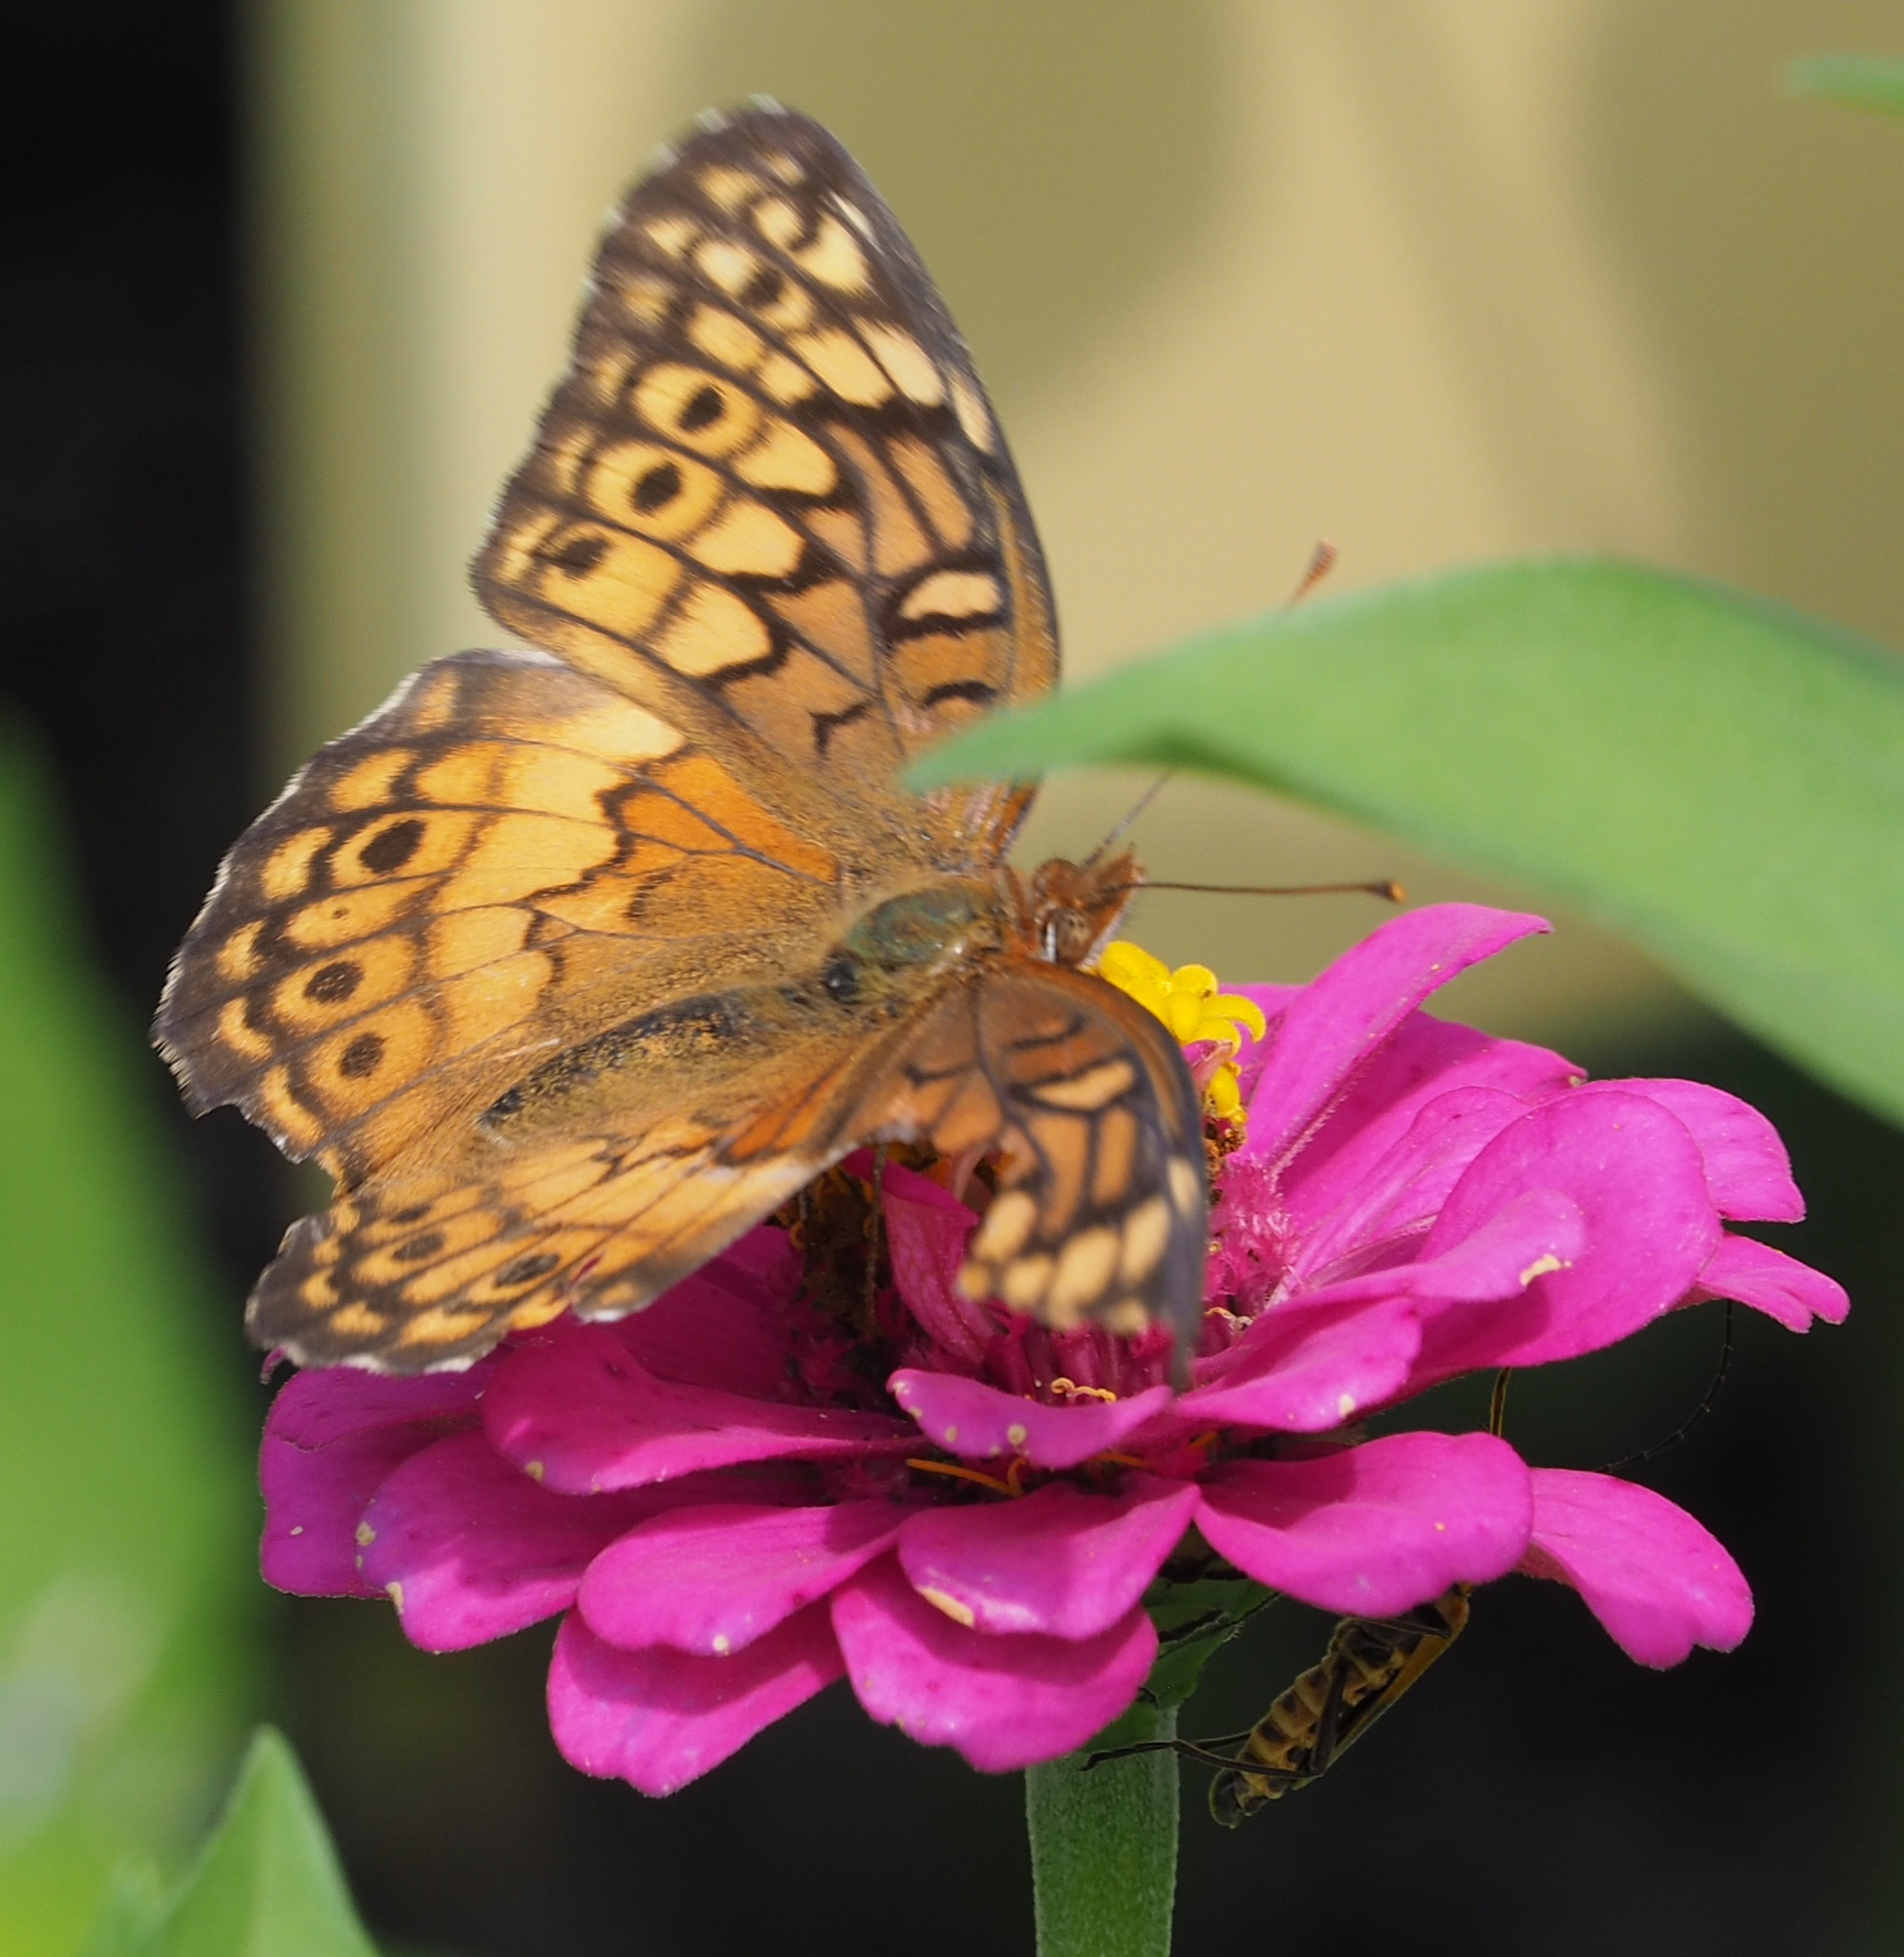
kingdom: Animalia
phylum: Arthropoda
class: Insecta
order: Lepidoptera
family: Nymphalidae
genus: Euptoieta
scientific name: Euptoieta claudia
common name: Variegated fritillary
